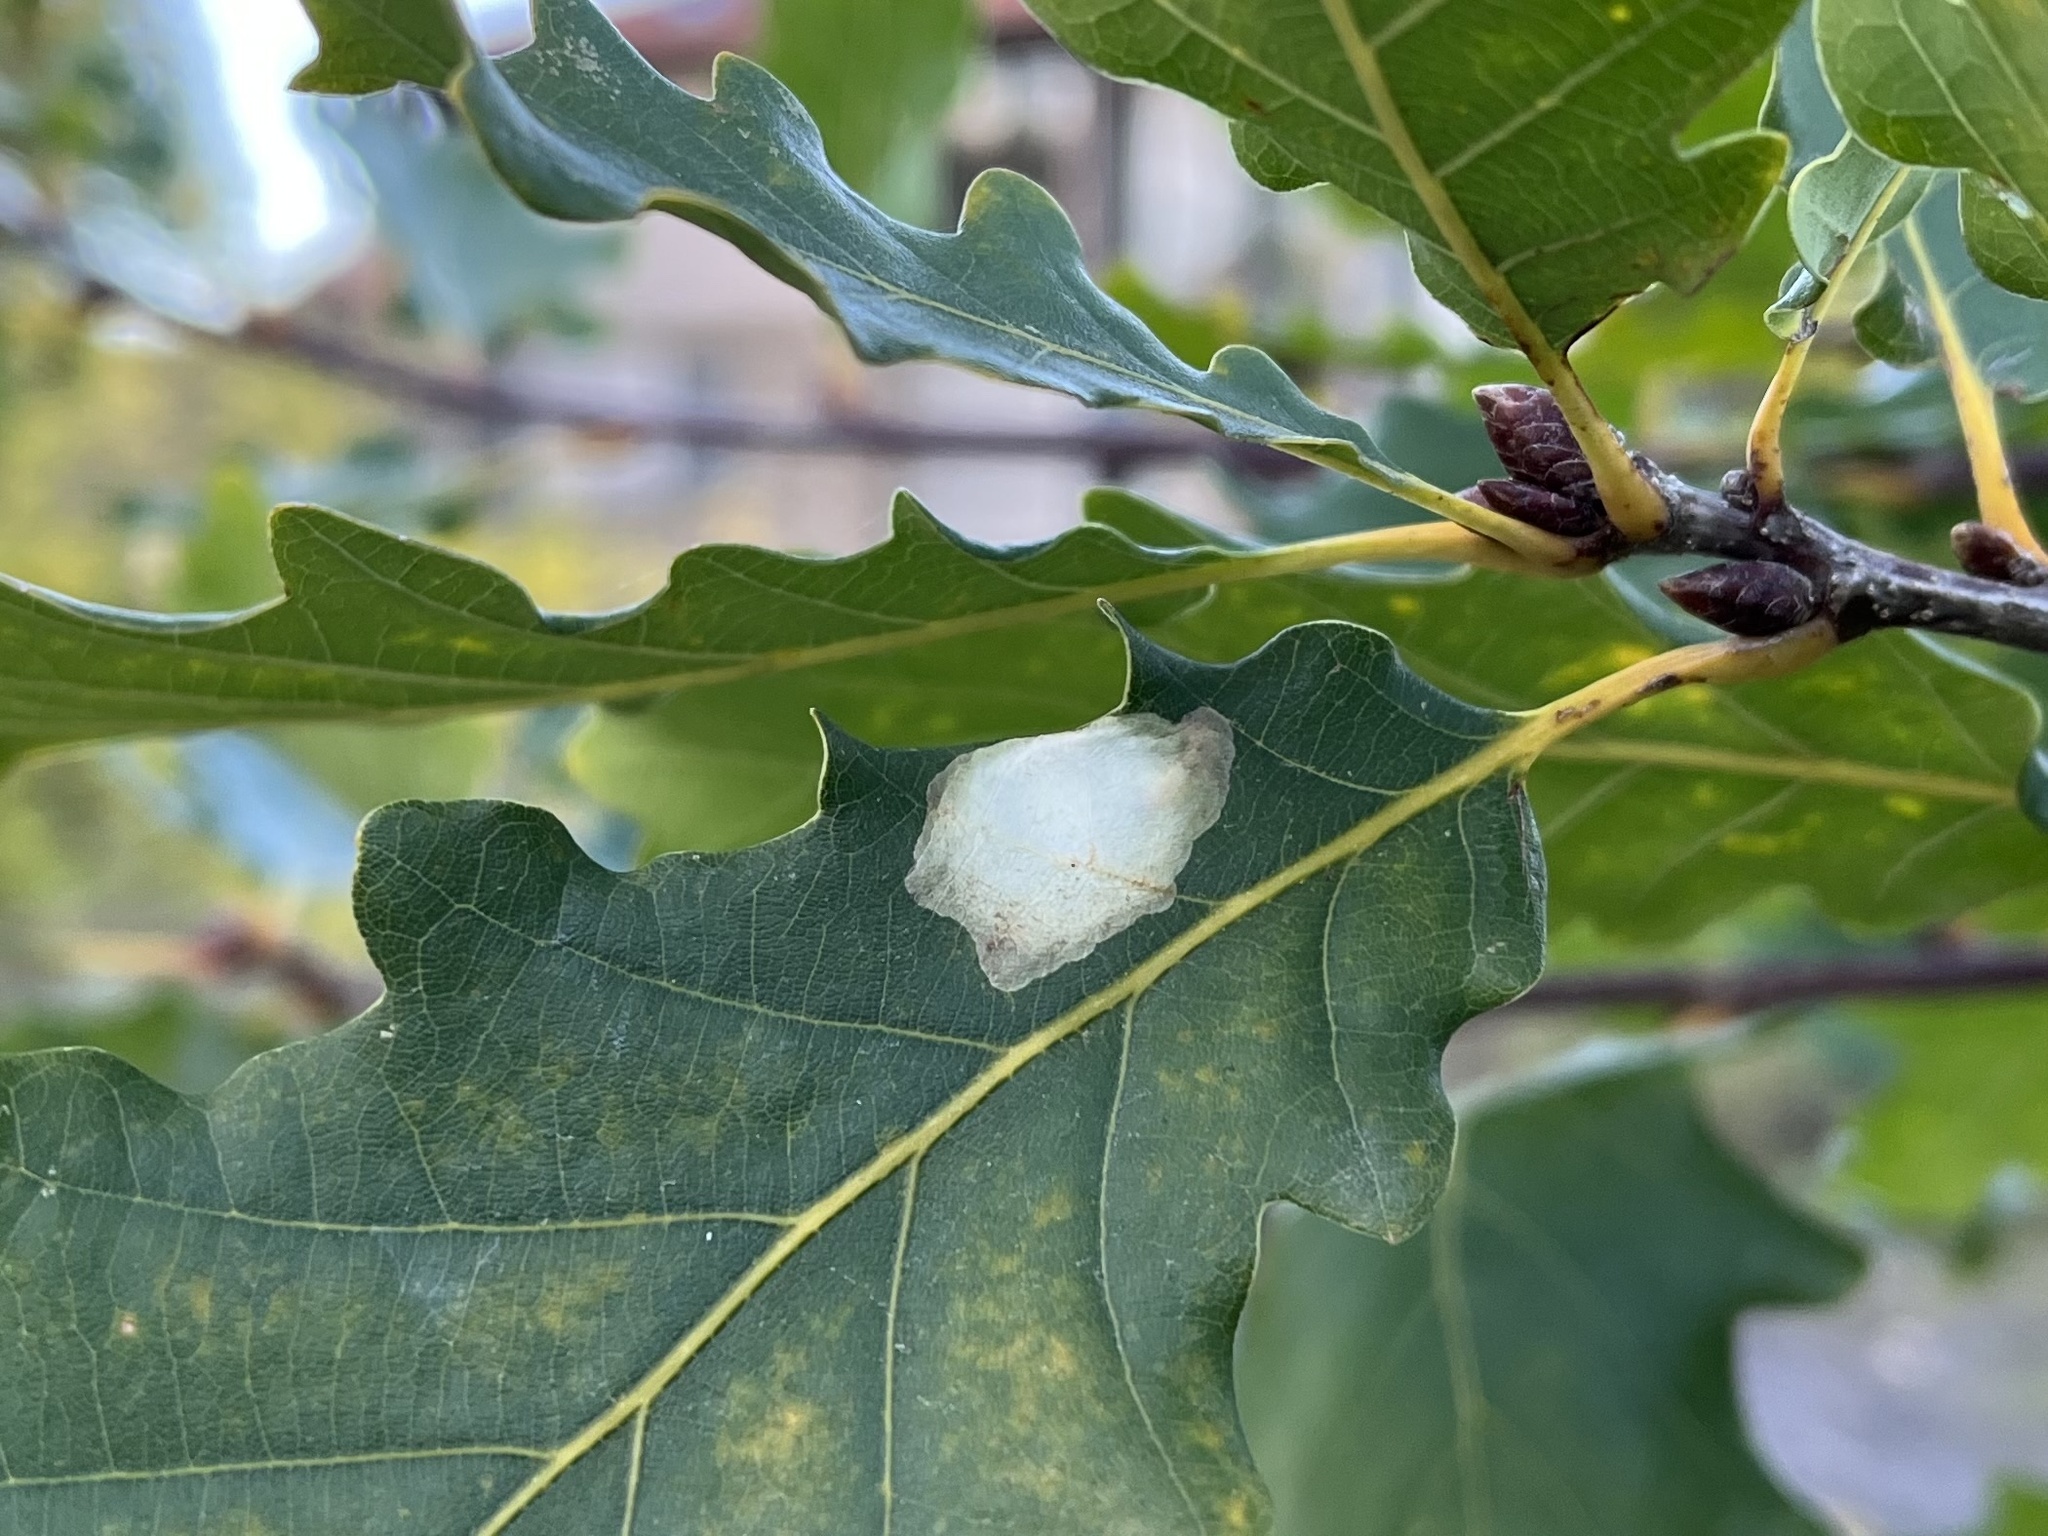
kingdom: Animalia
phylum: Arthropoda
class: Insecta
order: Lepidoptera
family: Tischeriidae
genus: Tischeria
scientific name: Tischeria ekebladella
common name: Oak carl
